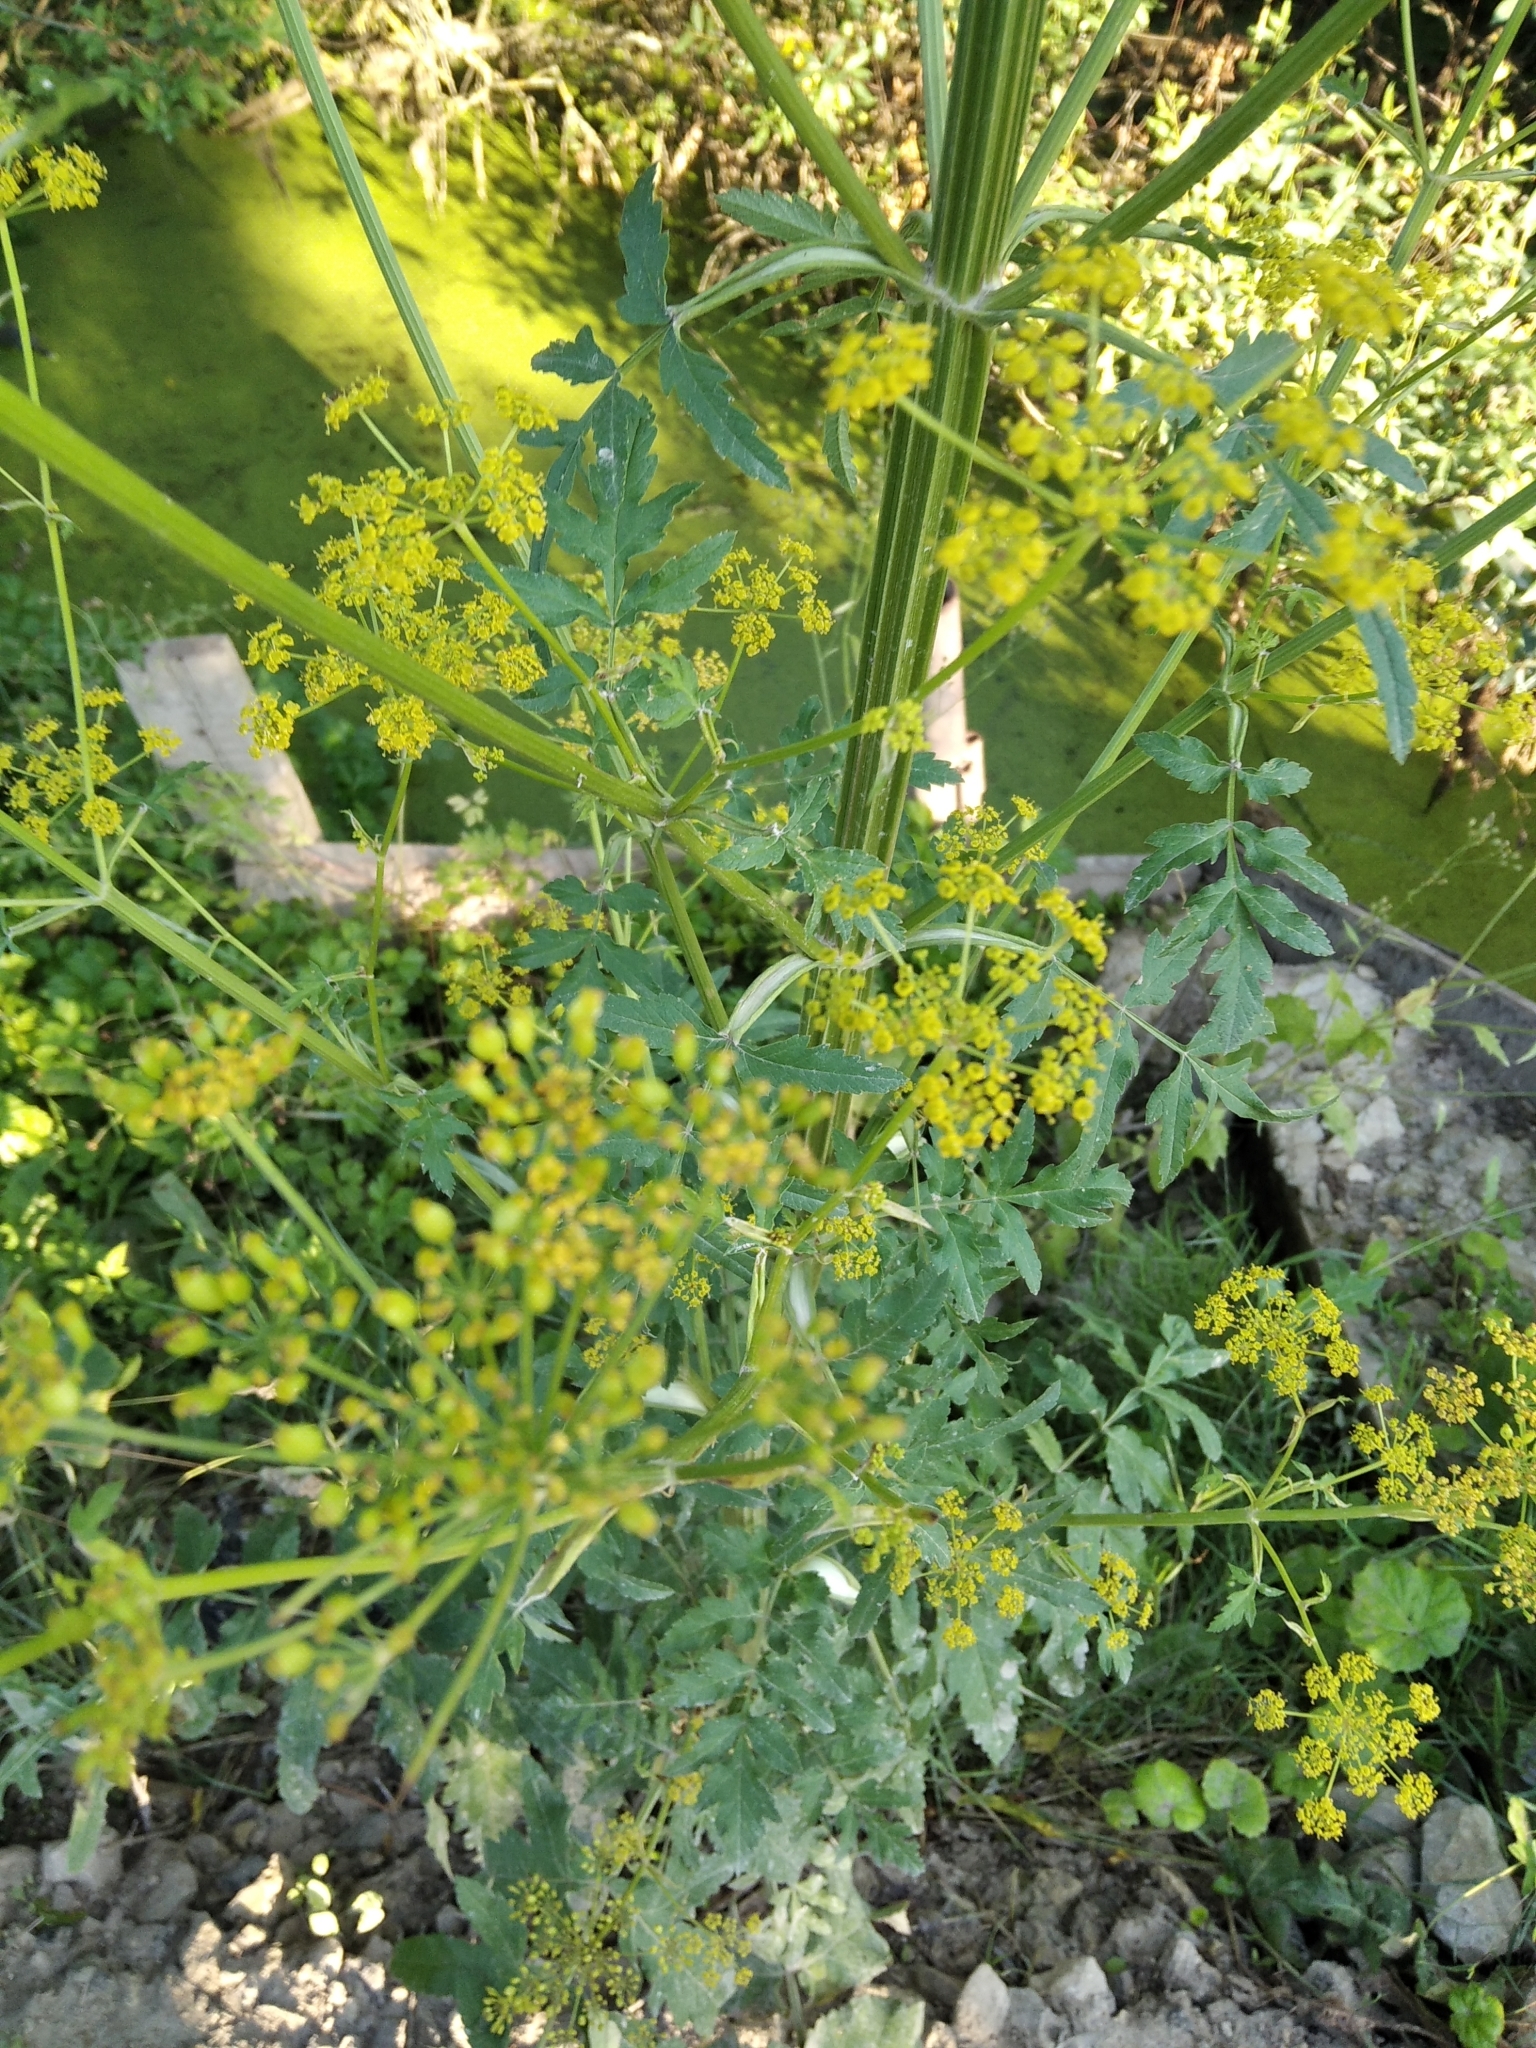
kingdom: Plantae
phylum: Tracheophyta
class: Magnoliopsida
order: Apiales
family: Apiaceae
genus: Pastinaca
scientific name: Pastinaca sativa
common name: Wild parsnip
